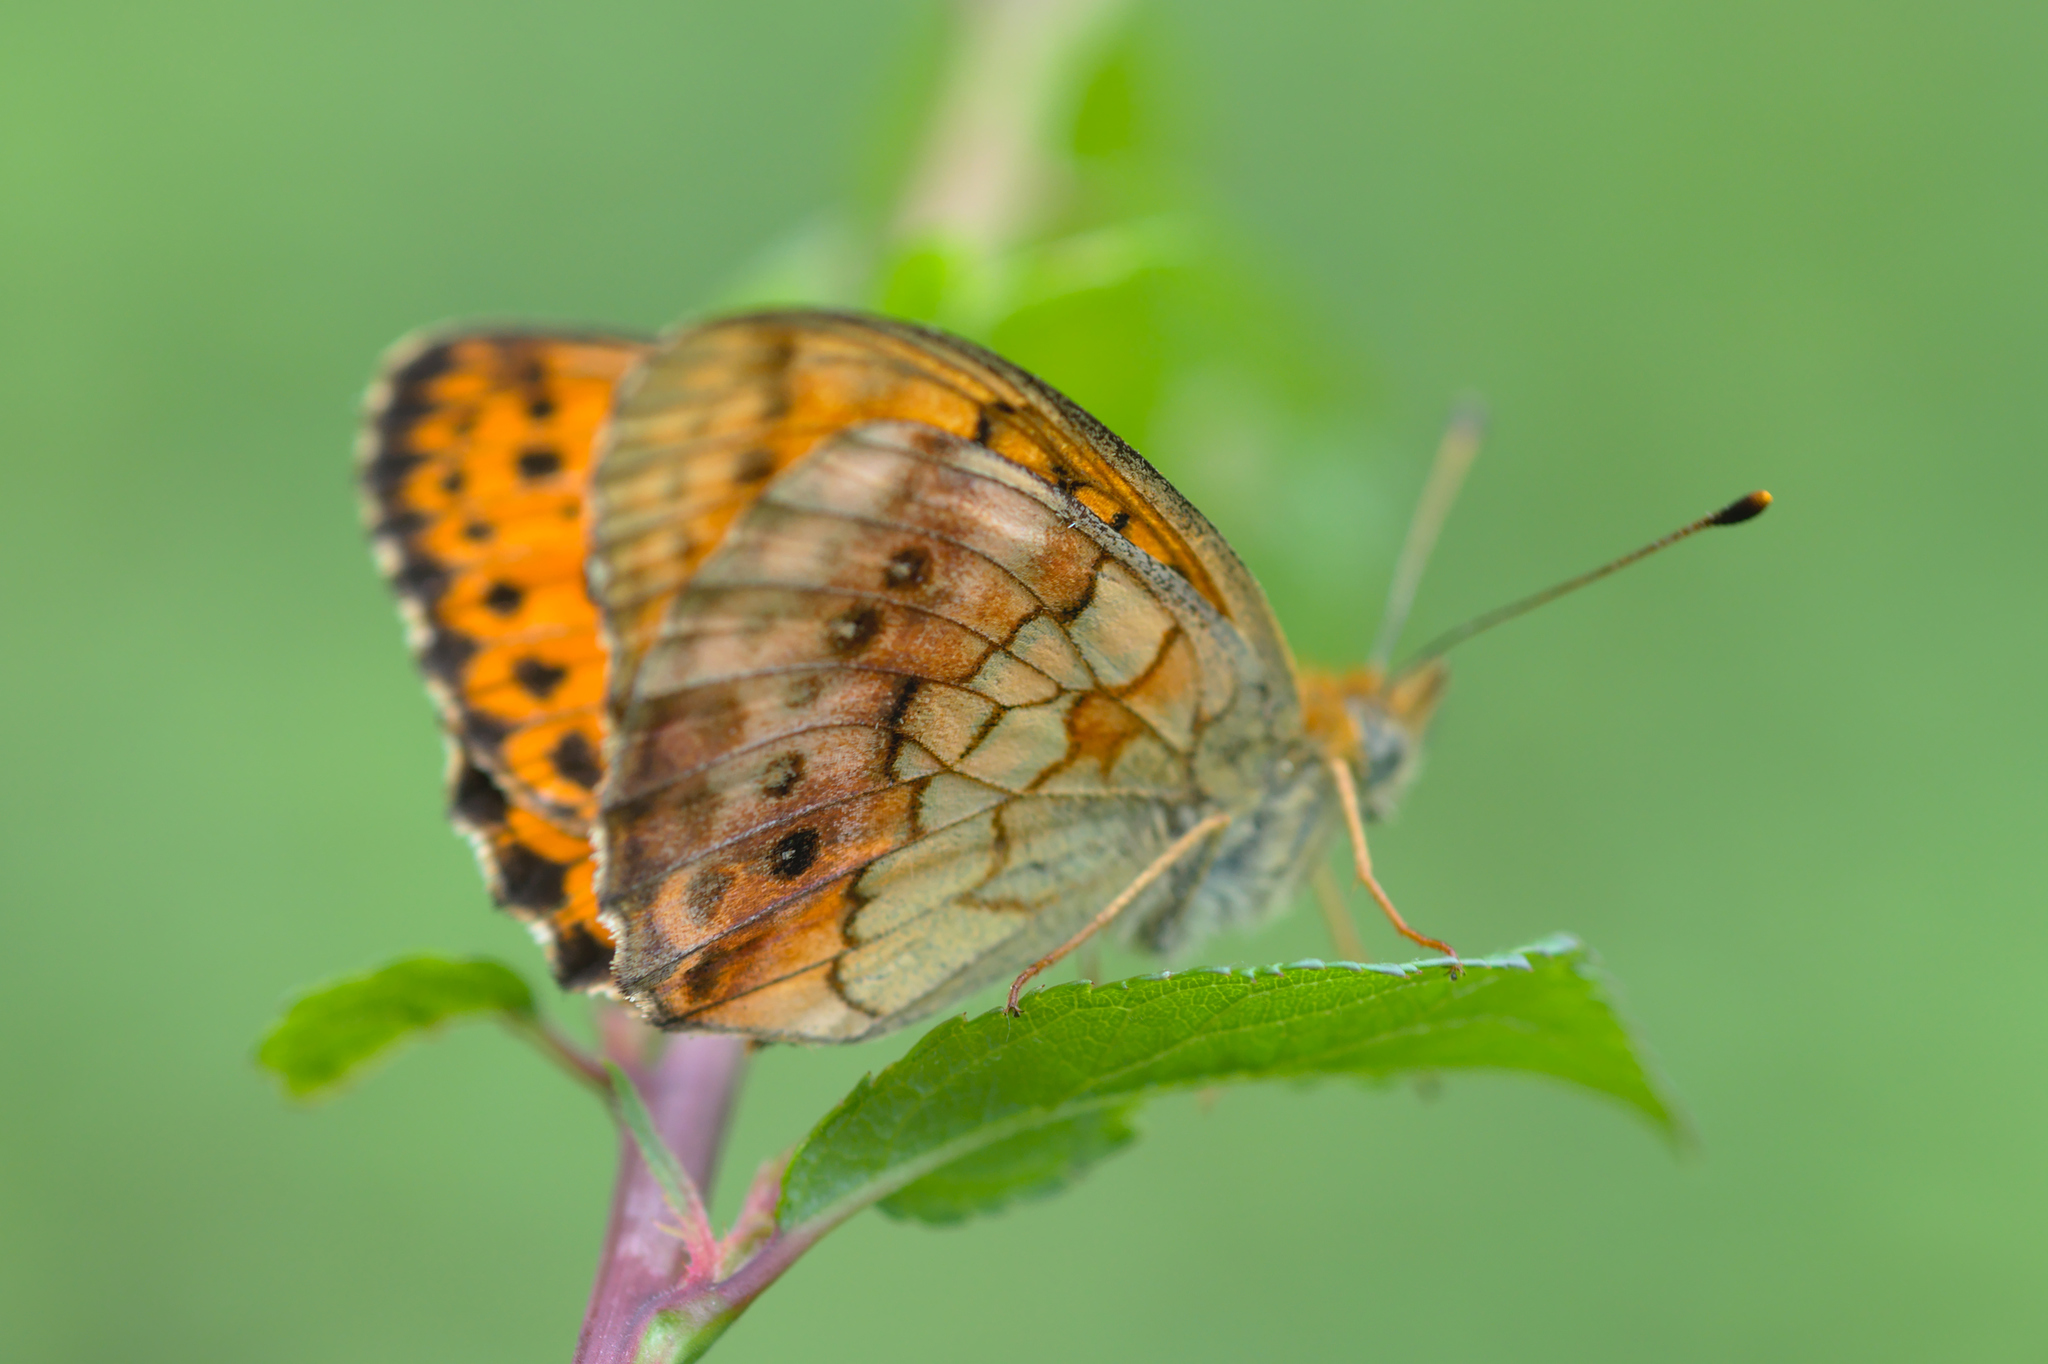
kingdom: Animalia
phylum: Arthropoda
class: Insecta
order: Lepidoptera
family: Nymphalidae
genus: Brenthis
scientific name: Brenthis daphne
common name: Marbled fritillary
